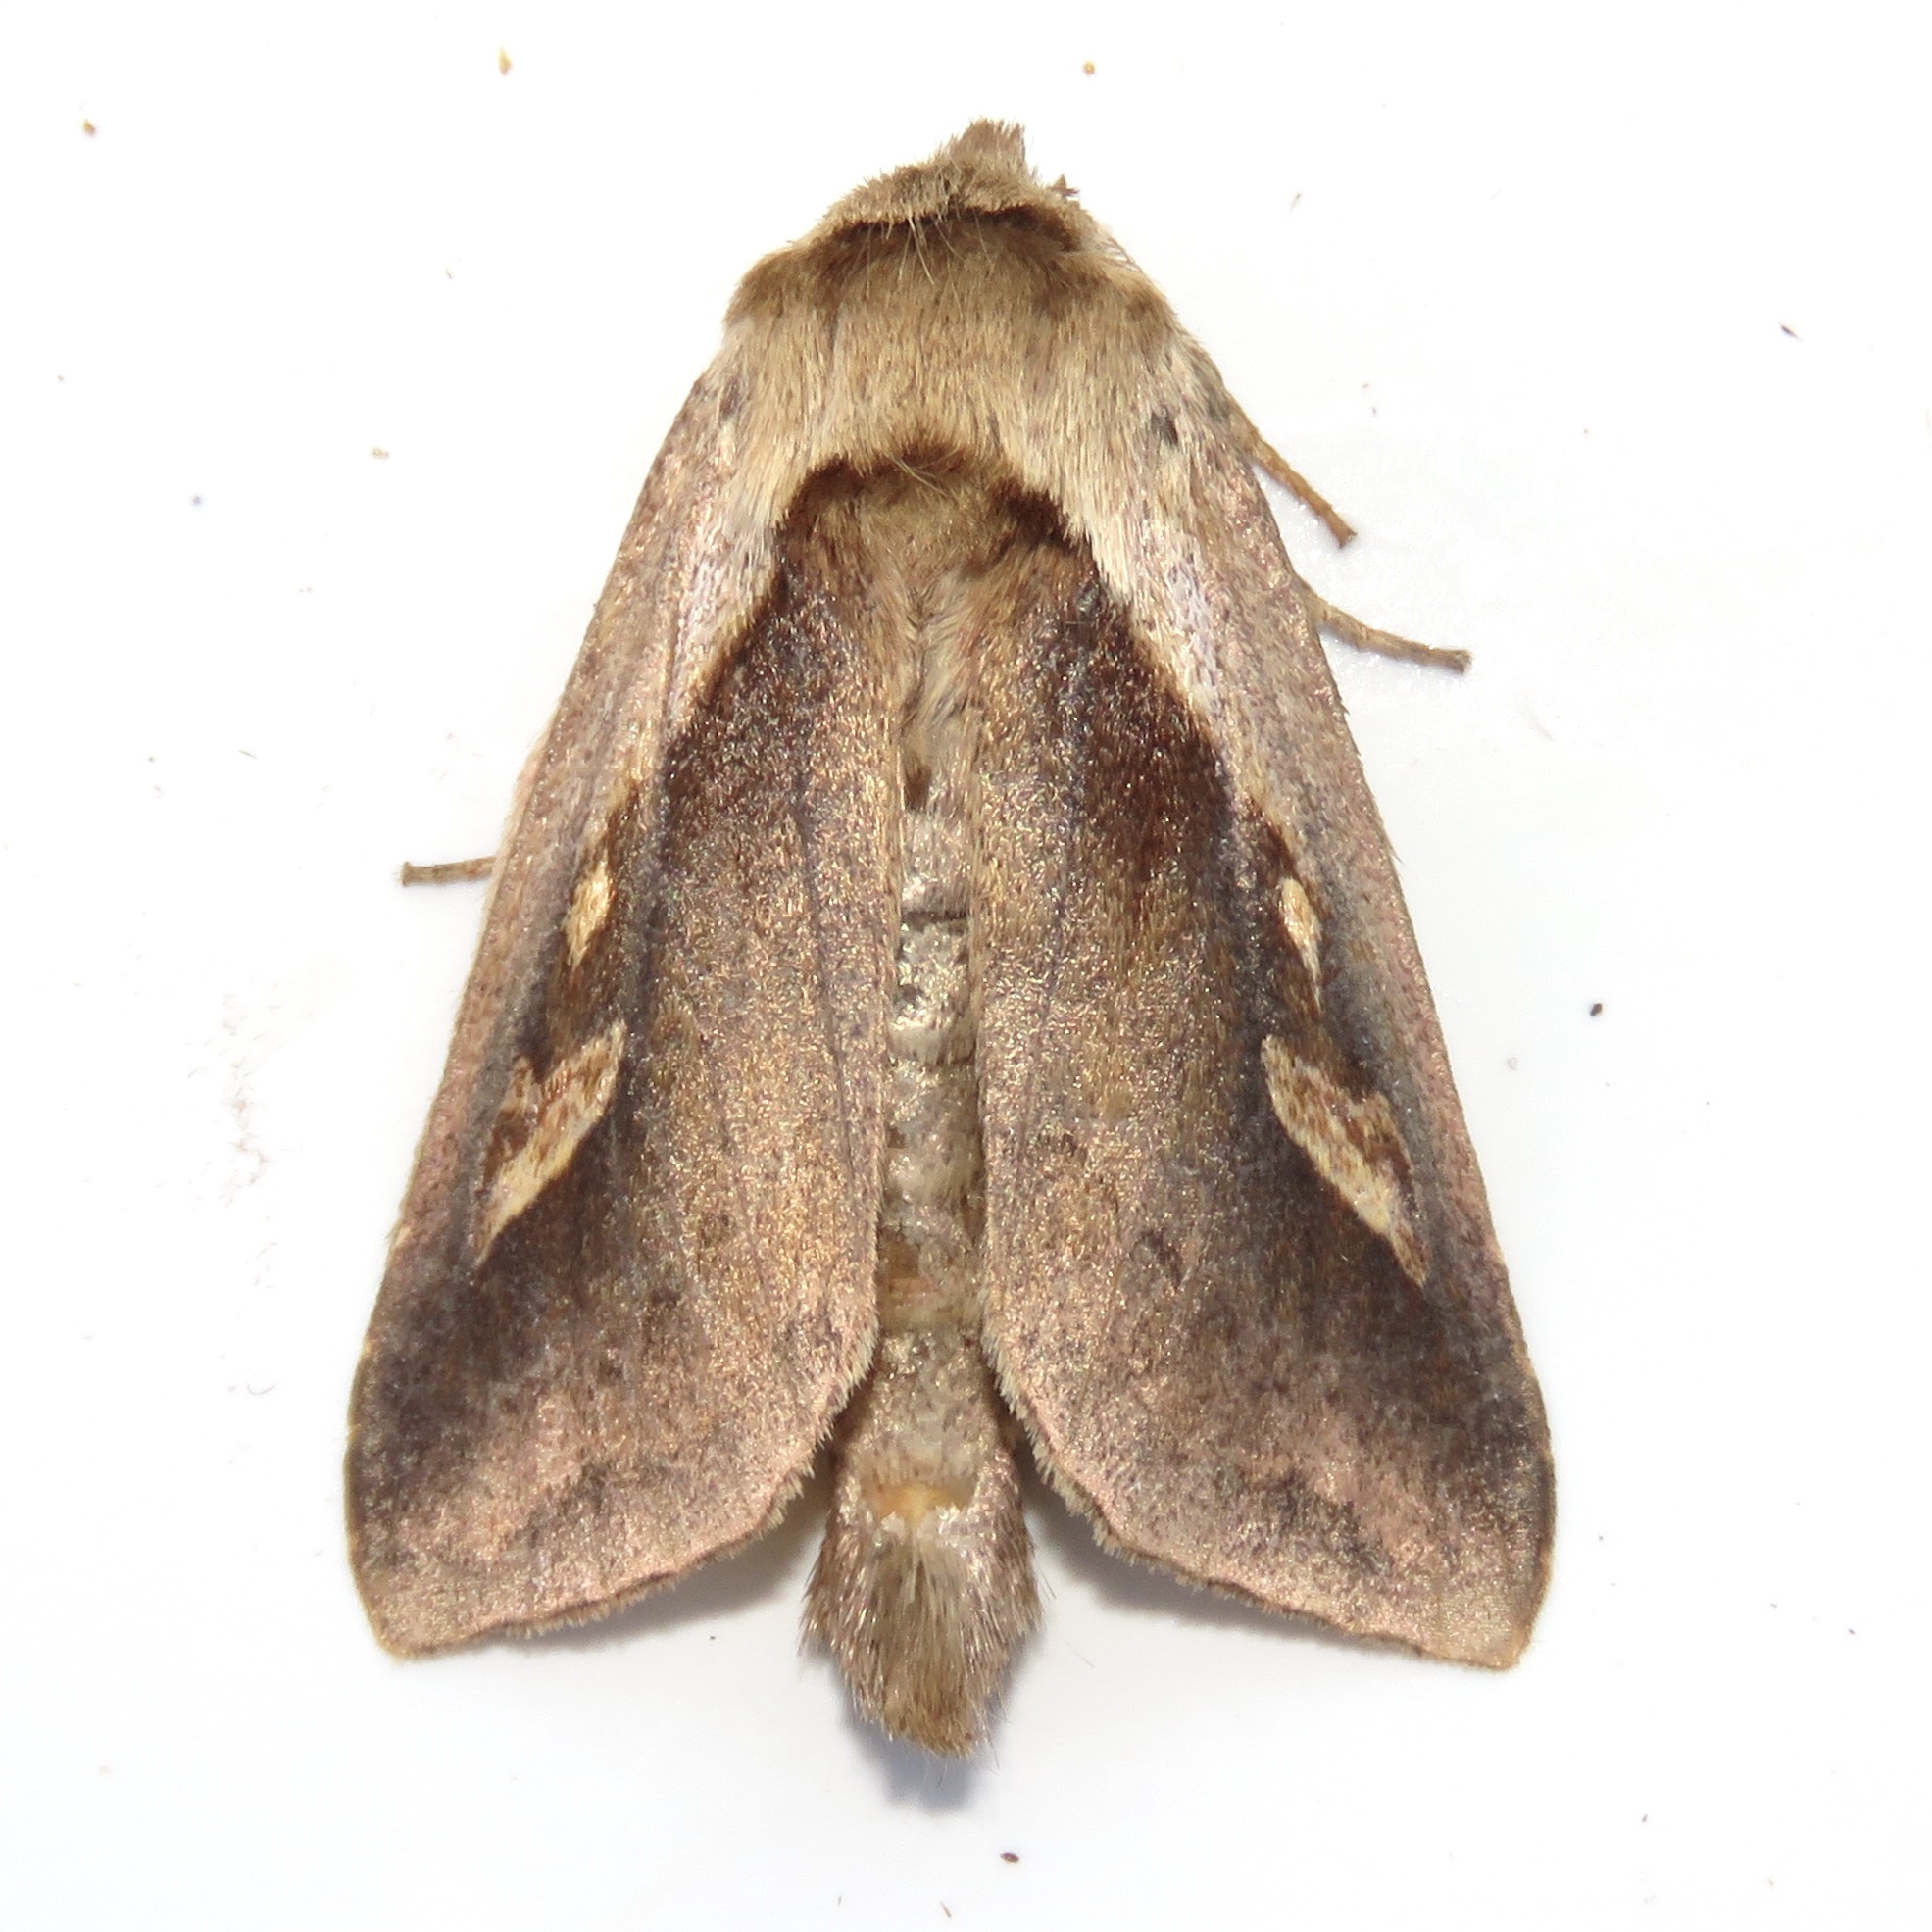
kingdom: Animalia
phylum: Arthropoda
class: Insecta
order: Lepidoptera
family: Noctuidae
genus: Bellura
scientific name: Bellura obliqua
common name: Cattail borer moth
